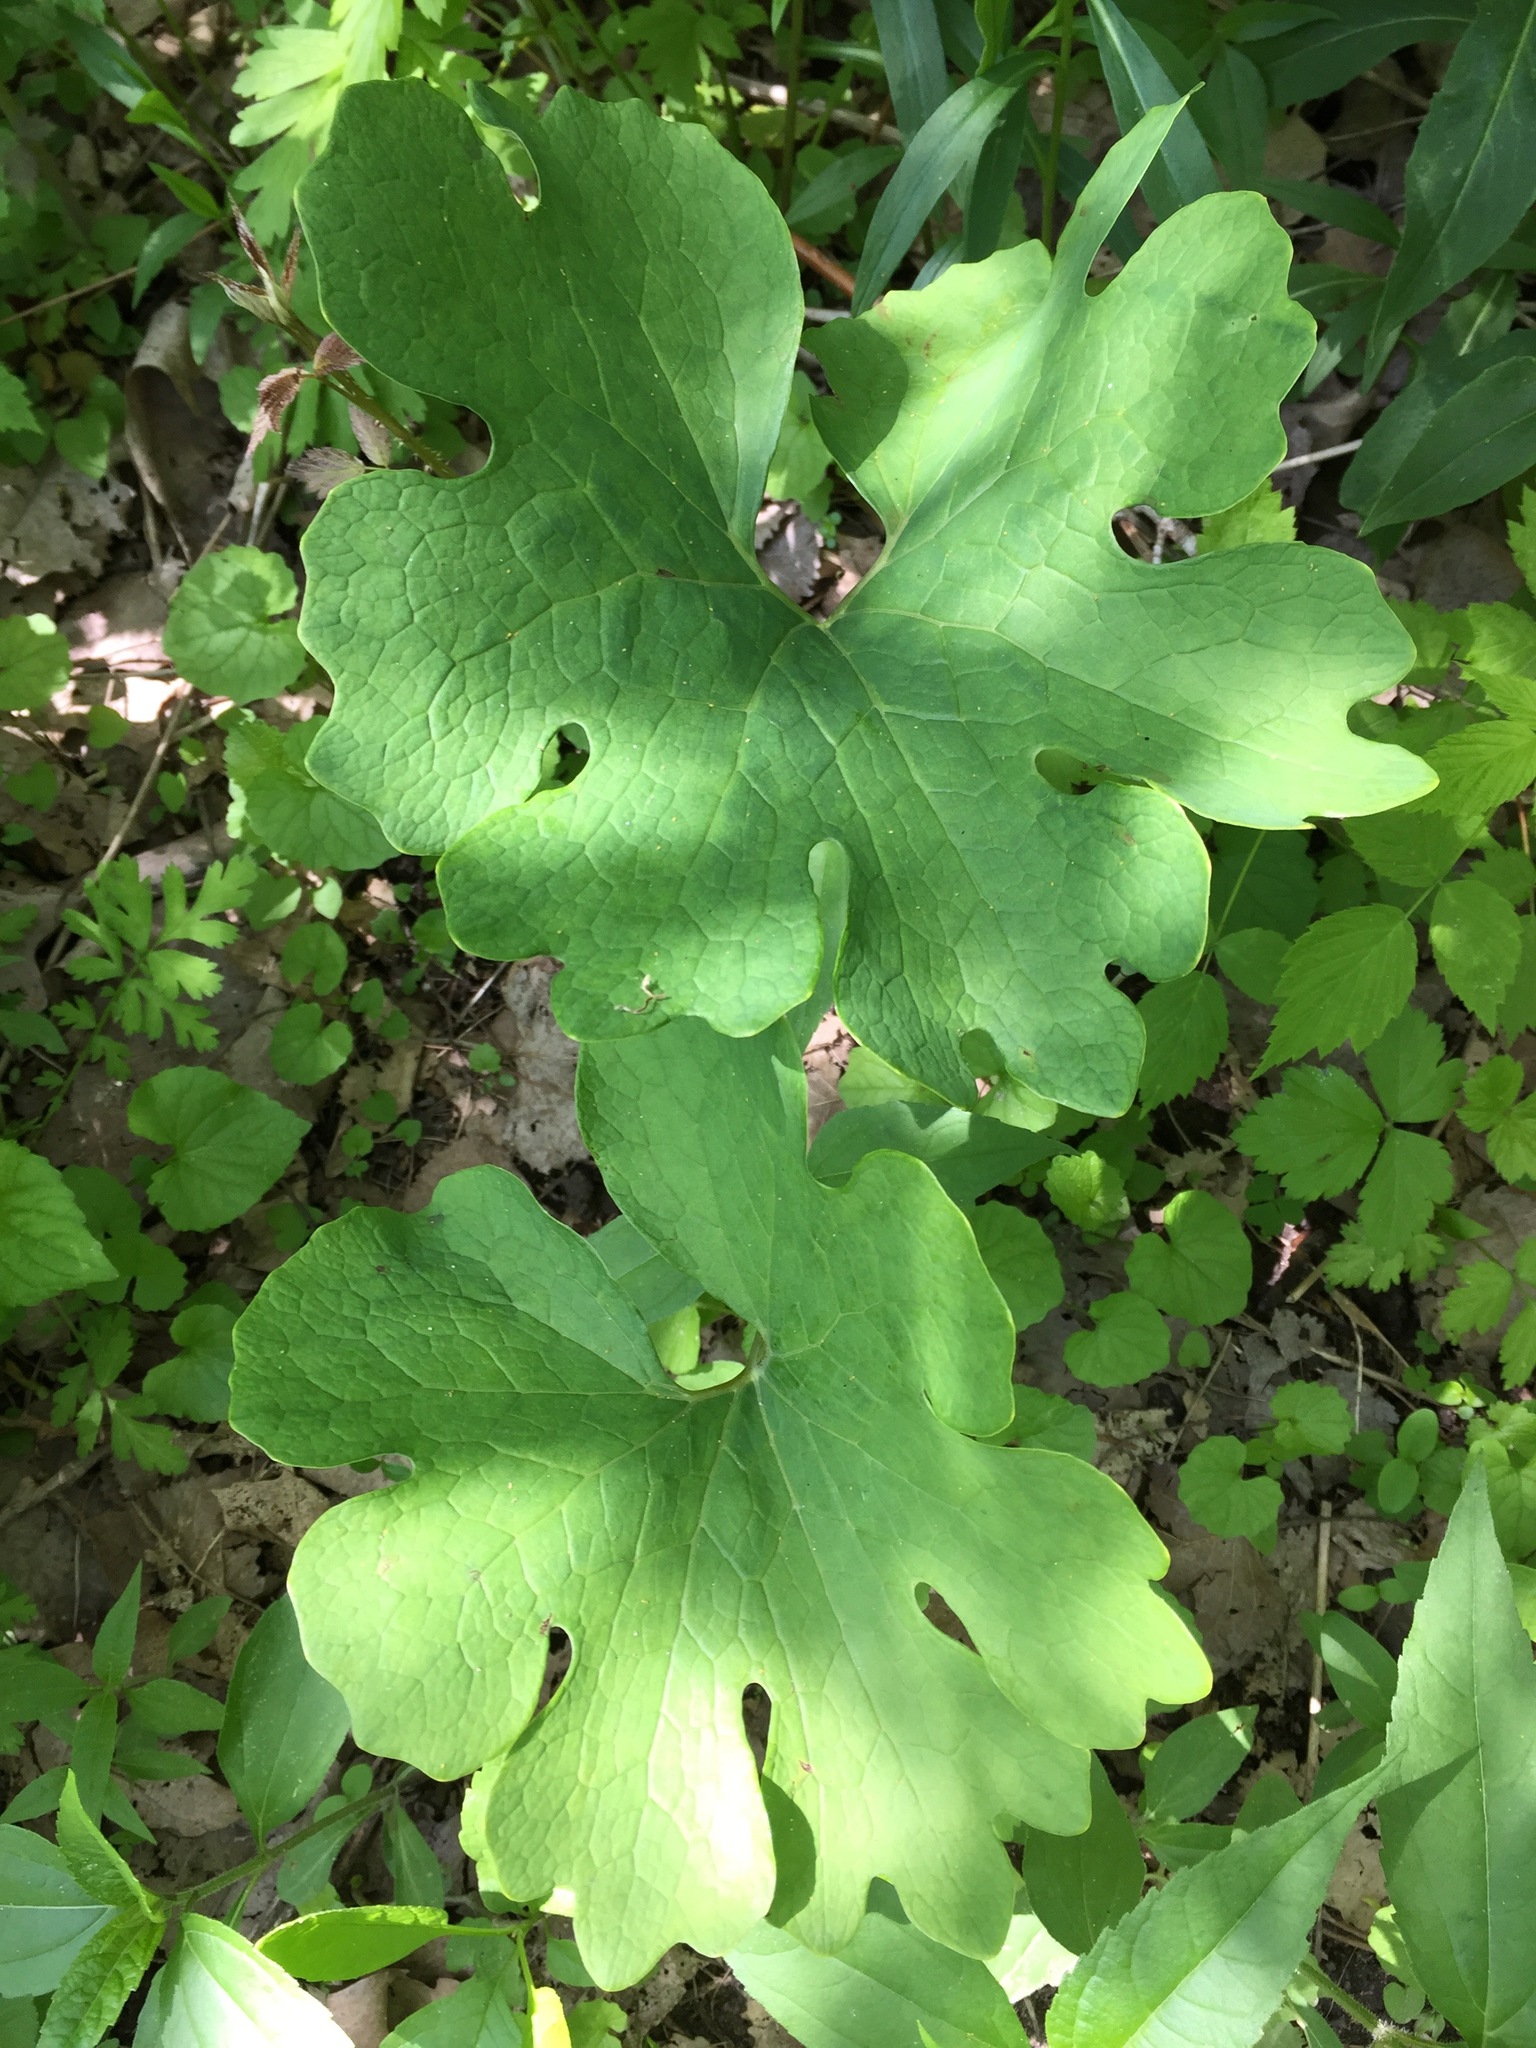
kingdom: Plantae
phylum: Tracheophyta
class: Magnoliopsida
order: Ranunculales
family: Papaveraceae
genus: Sanguinaria
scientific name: Sanguinaria canadensis
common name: Bloodroot
